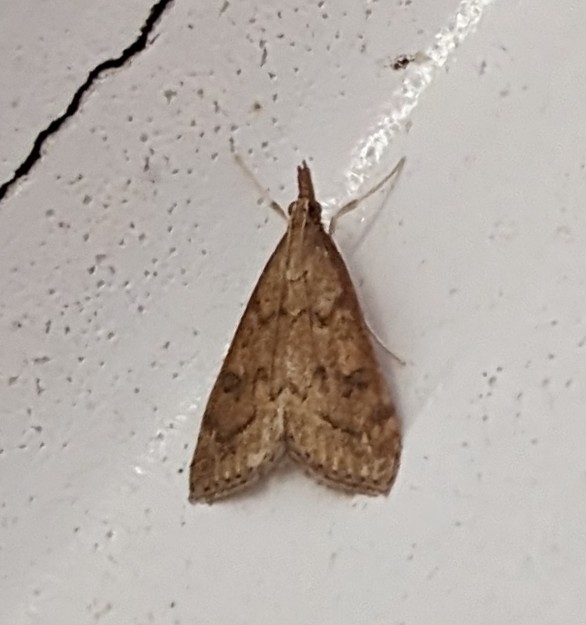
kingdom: Animalia
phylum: Arthropoda
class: Insecta
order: Lepidoptera
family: Crambidae
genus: Udea
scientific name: Udea rubigalis
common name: Celery leaftier moth
